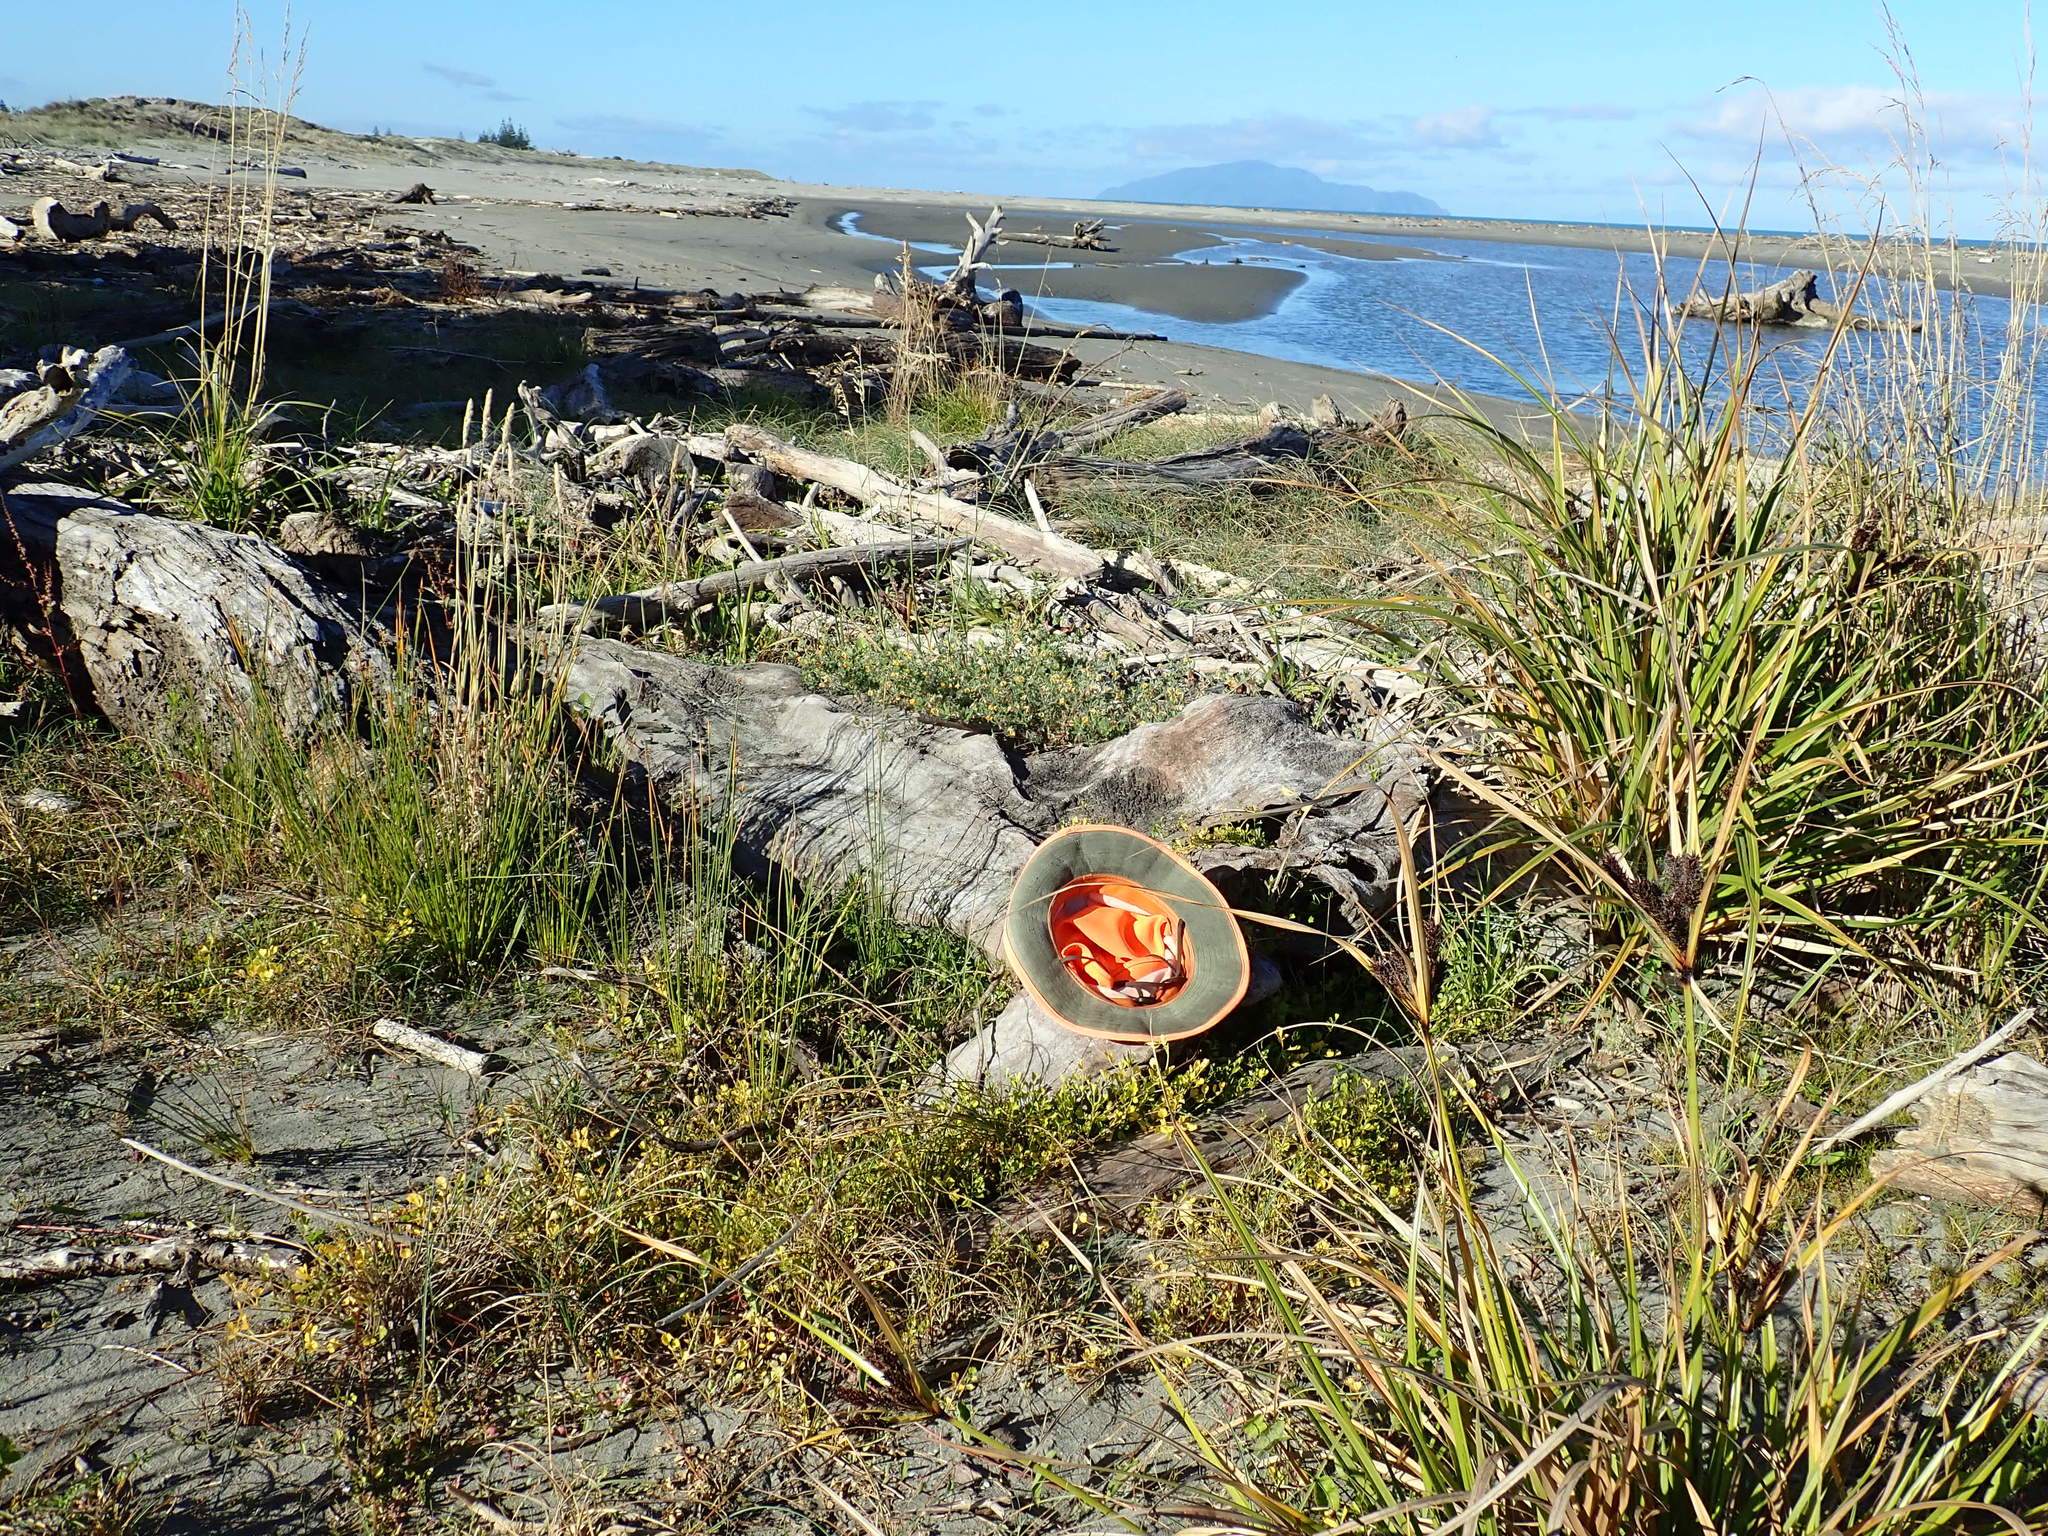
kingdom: Plantae
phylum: Tracheophyta
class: Magnoliopsida
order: Asterales
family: Campanulaceae
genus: Lobelia
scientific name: Lobelia anceps
